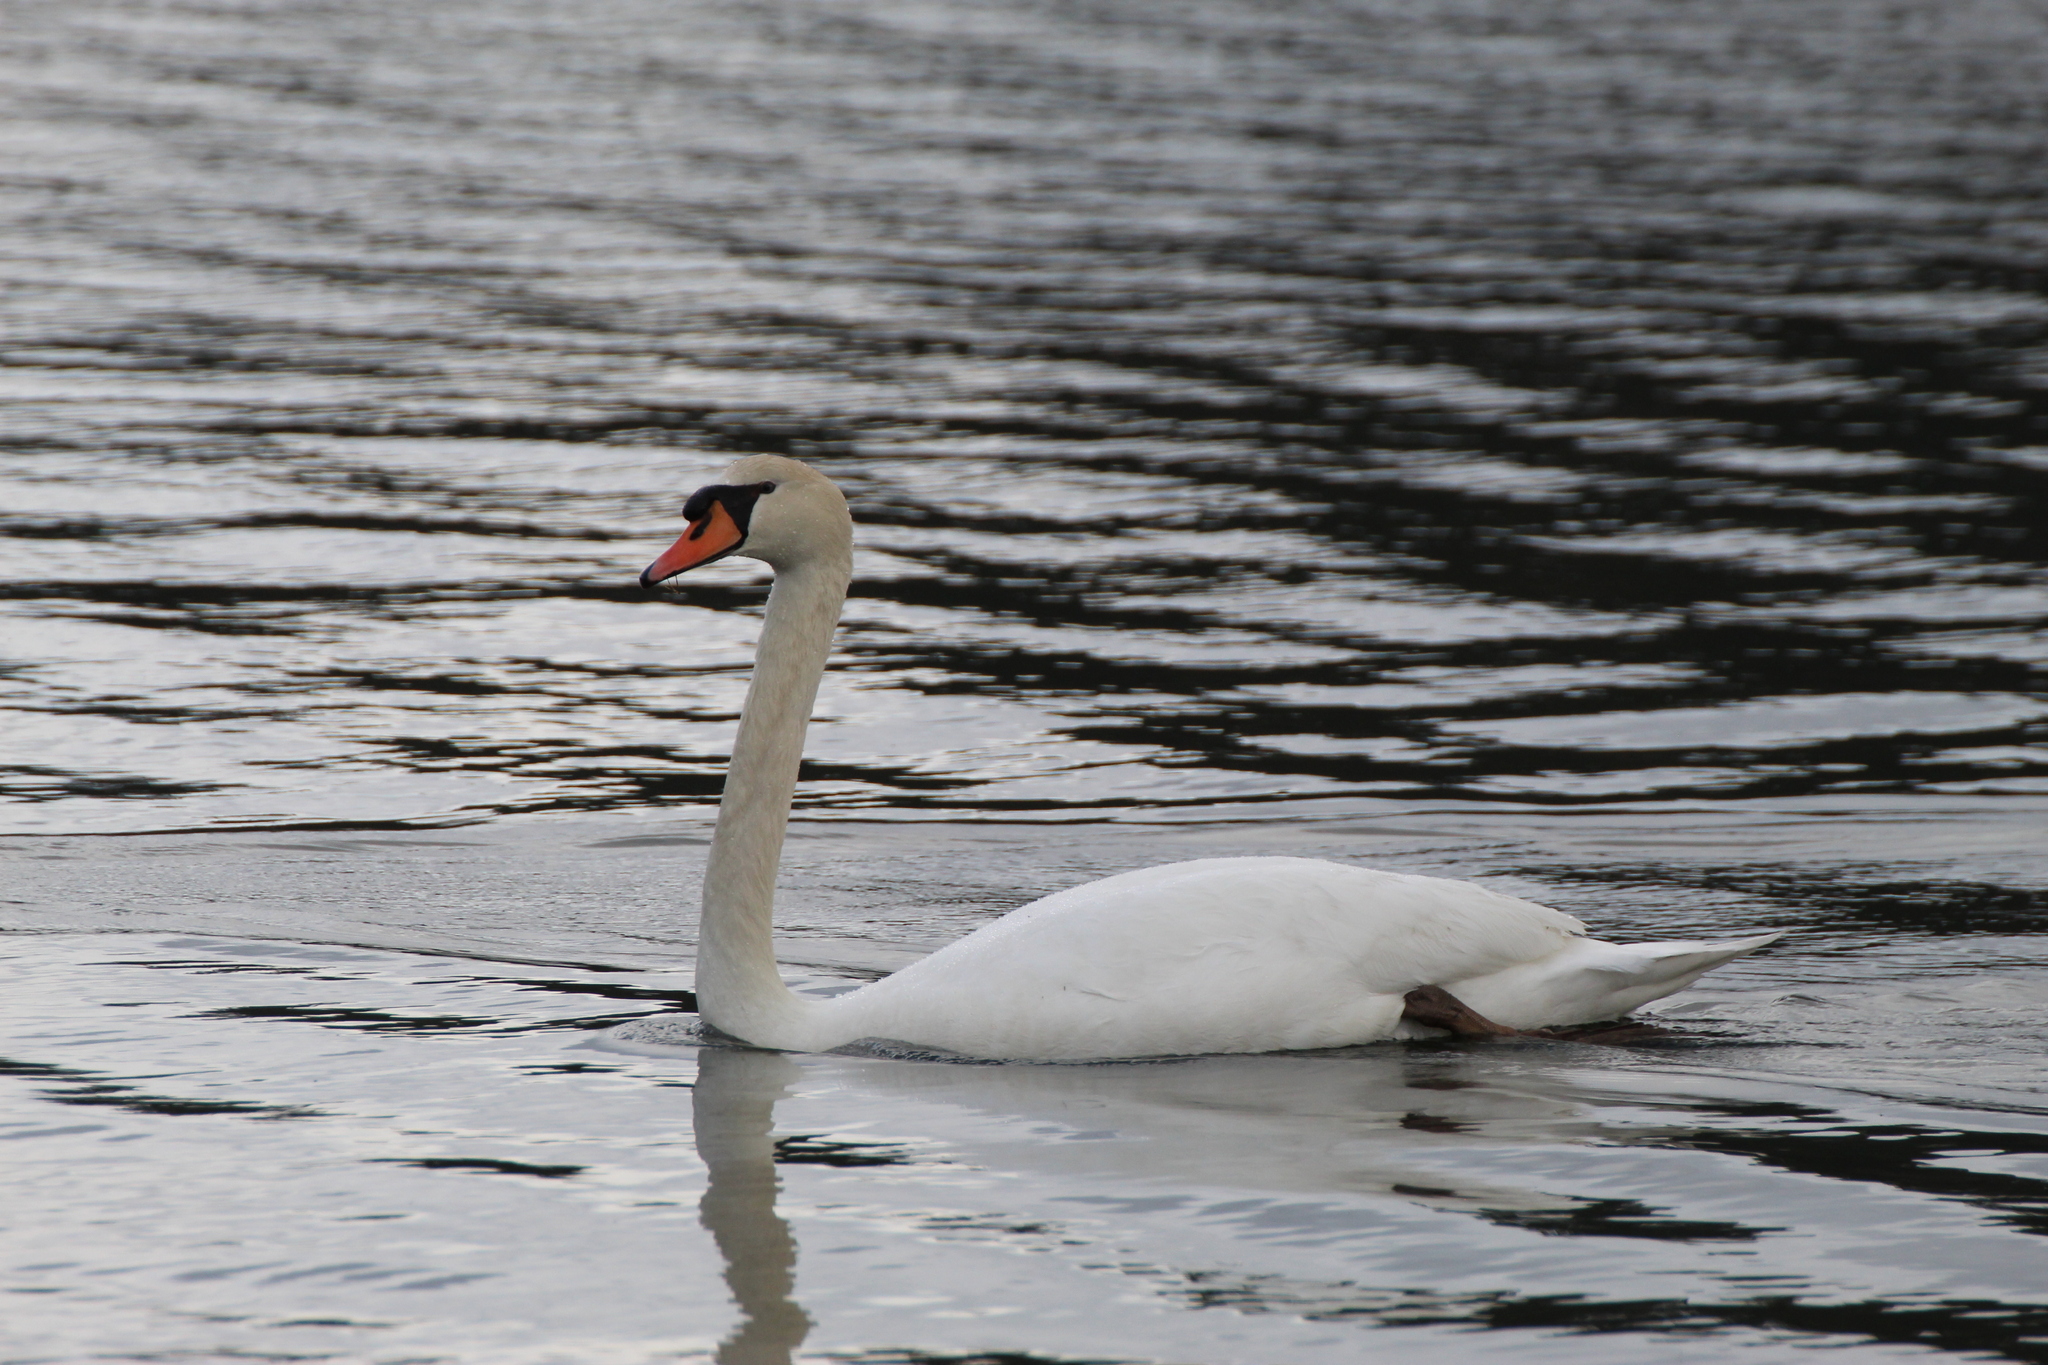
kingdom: Animalia
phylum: Chordata
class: Aves
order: Anseriformes
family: Anatidae
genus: Cygnus
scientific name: Cygnus olor
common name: Mute swan
